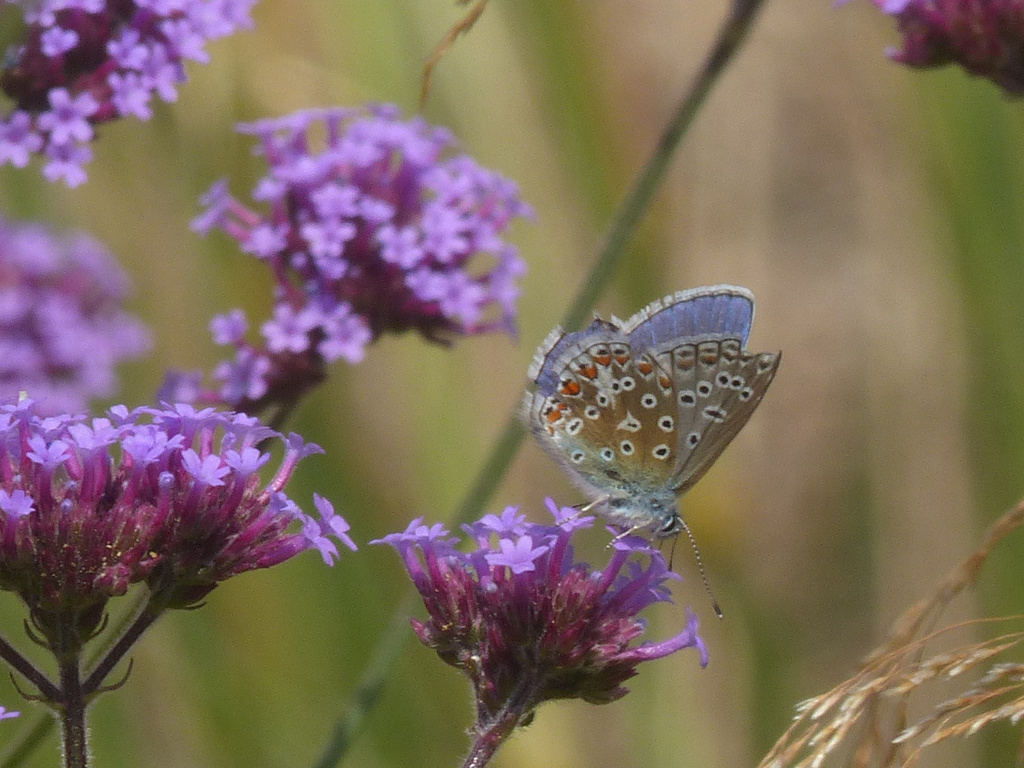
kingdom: Animalia
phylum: Arthropoda
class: Insecta
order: Lepidoptera
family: Lycaenidae
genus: Polyommatus
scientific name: Polyommatus icarus
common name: Common blue
